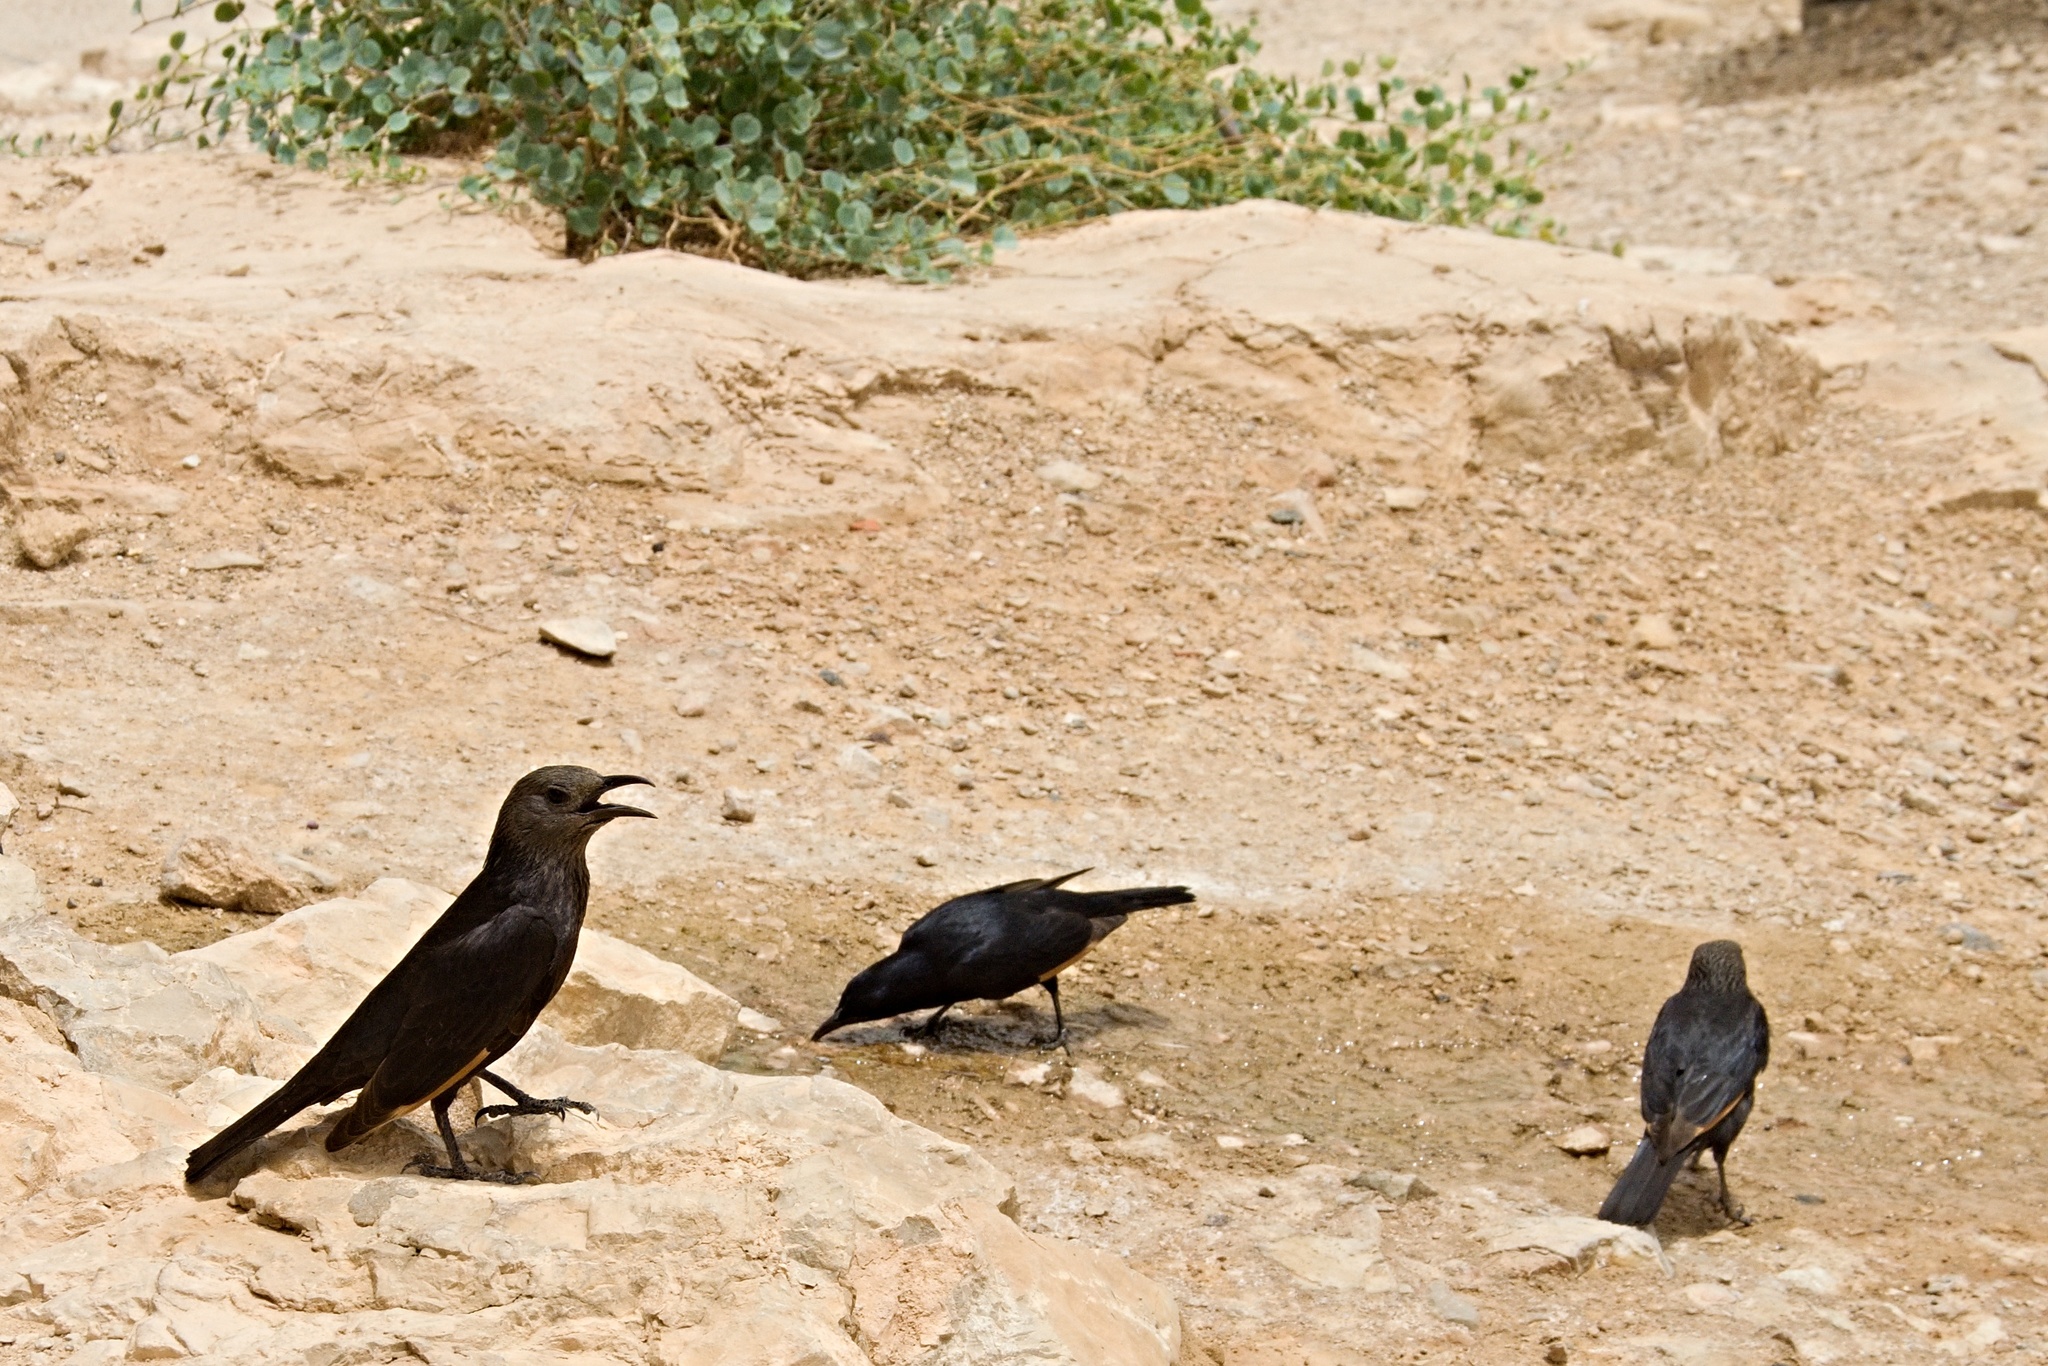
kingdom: Animalia
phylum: Chordata
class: Aves
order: Passeriformes
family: Sturnidae
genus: Onychognathus
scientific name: Onychognathus tristramii
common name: Tristram's starling
